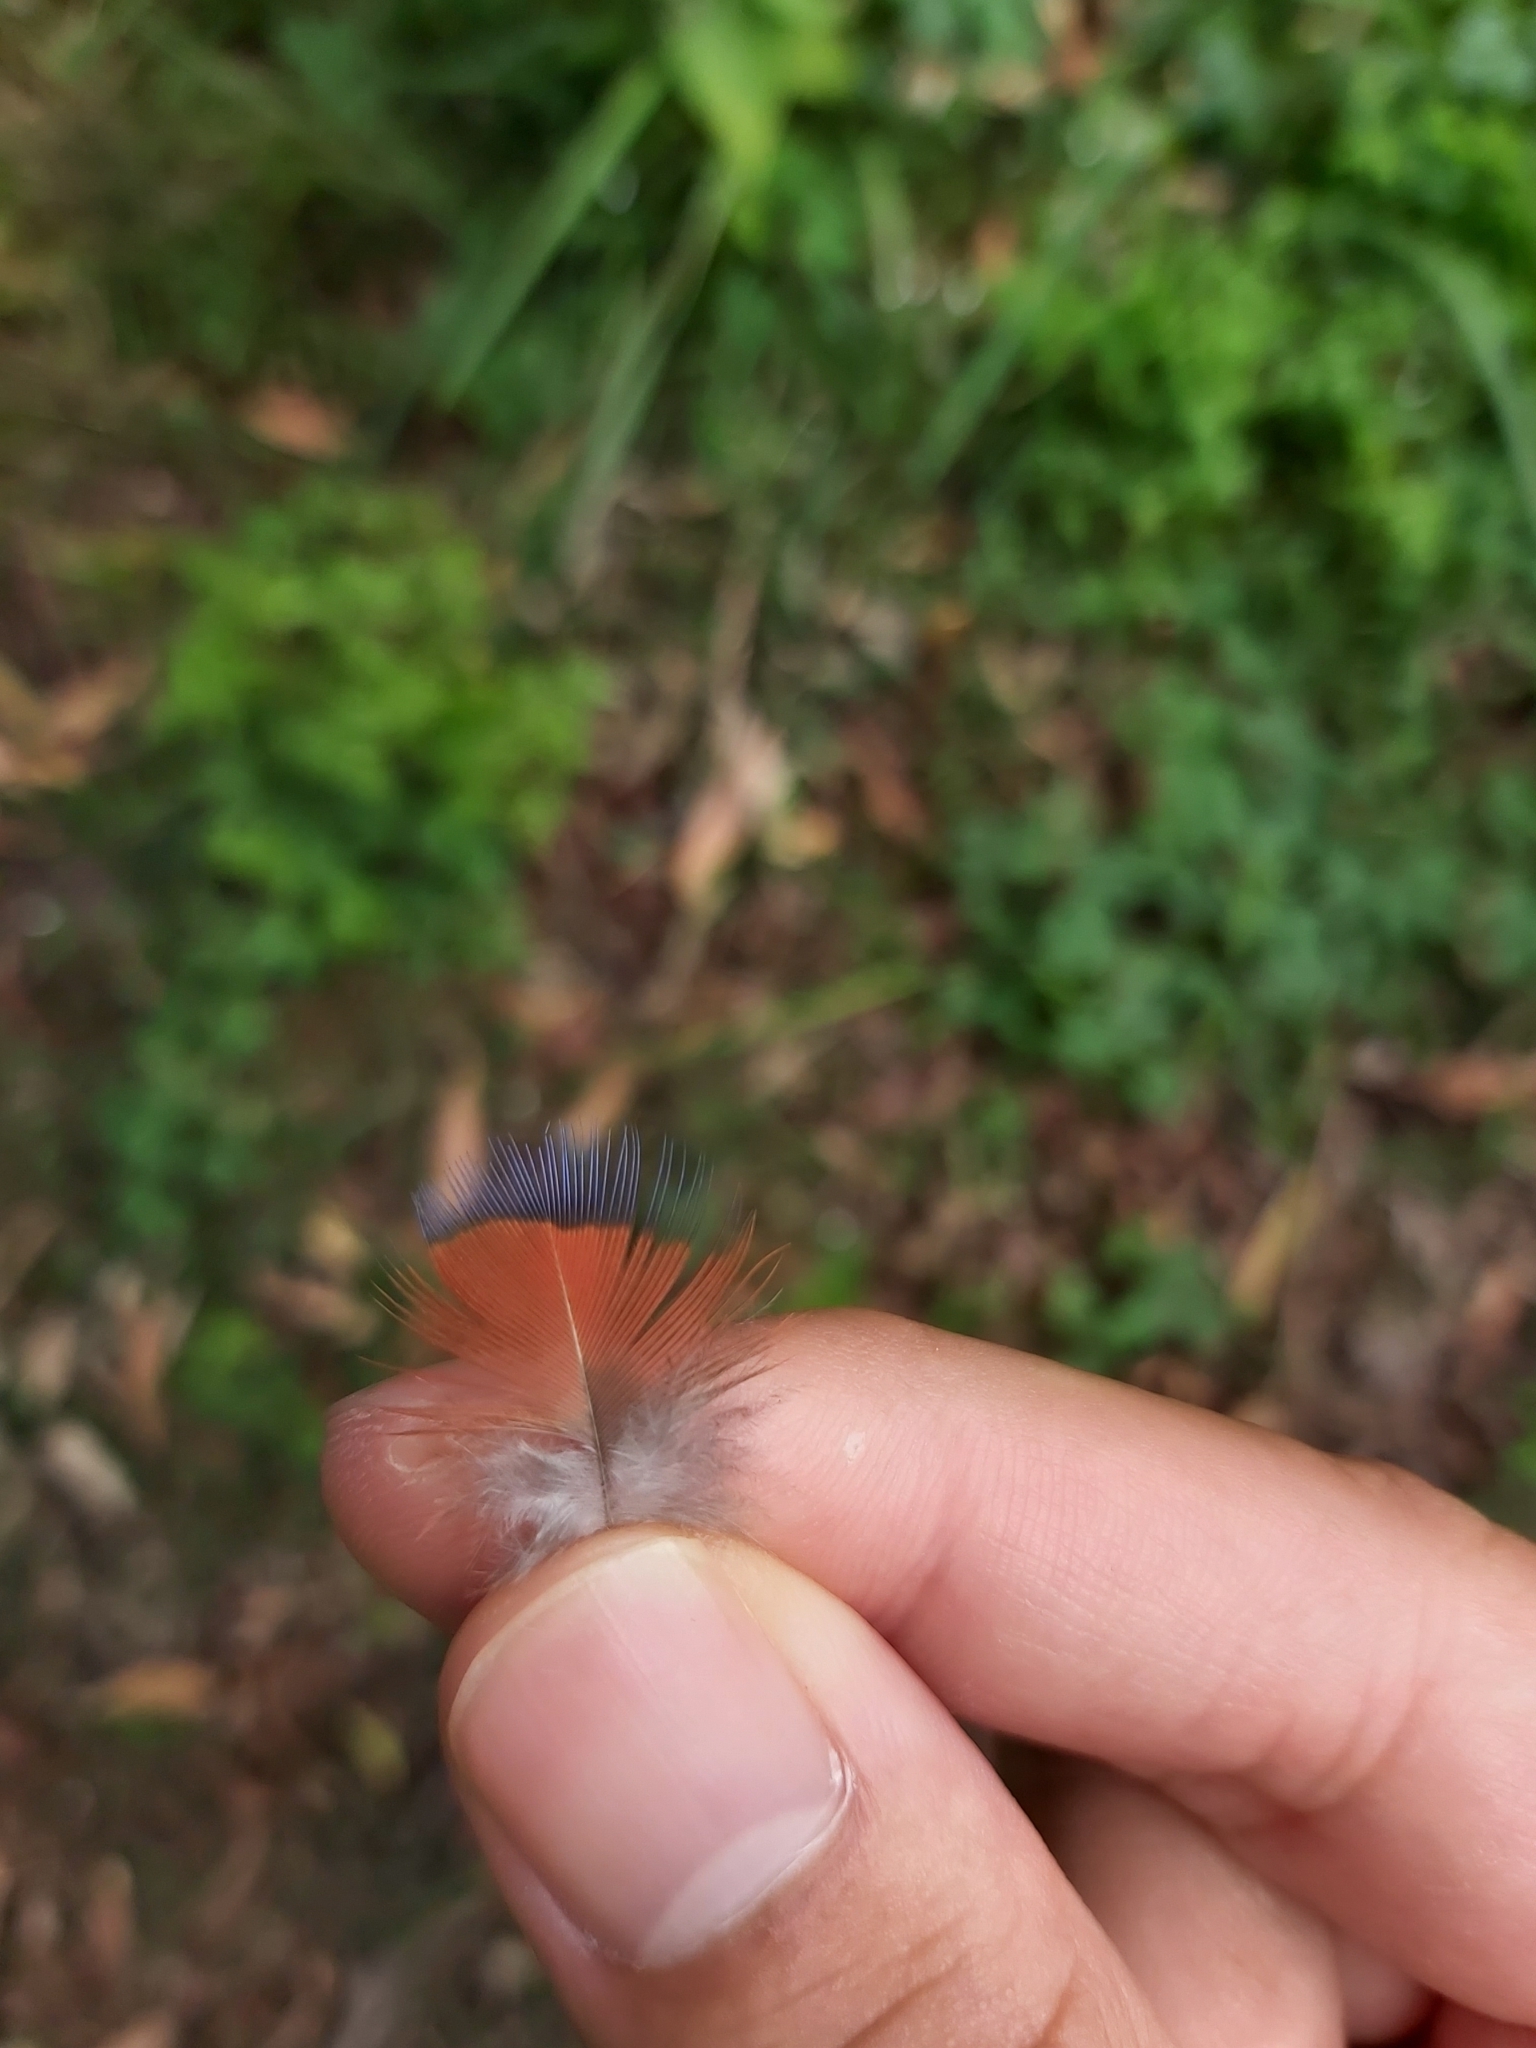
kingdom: Animalia
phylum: Chordata
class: Aves
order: Psittaciformes
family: Psittacidae
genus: Trichoglossus
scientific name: Trichoglossus haematodus
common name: Coconut lorikeet
